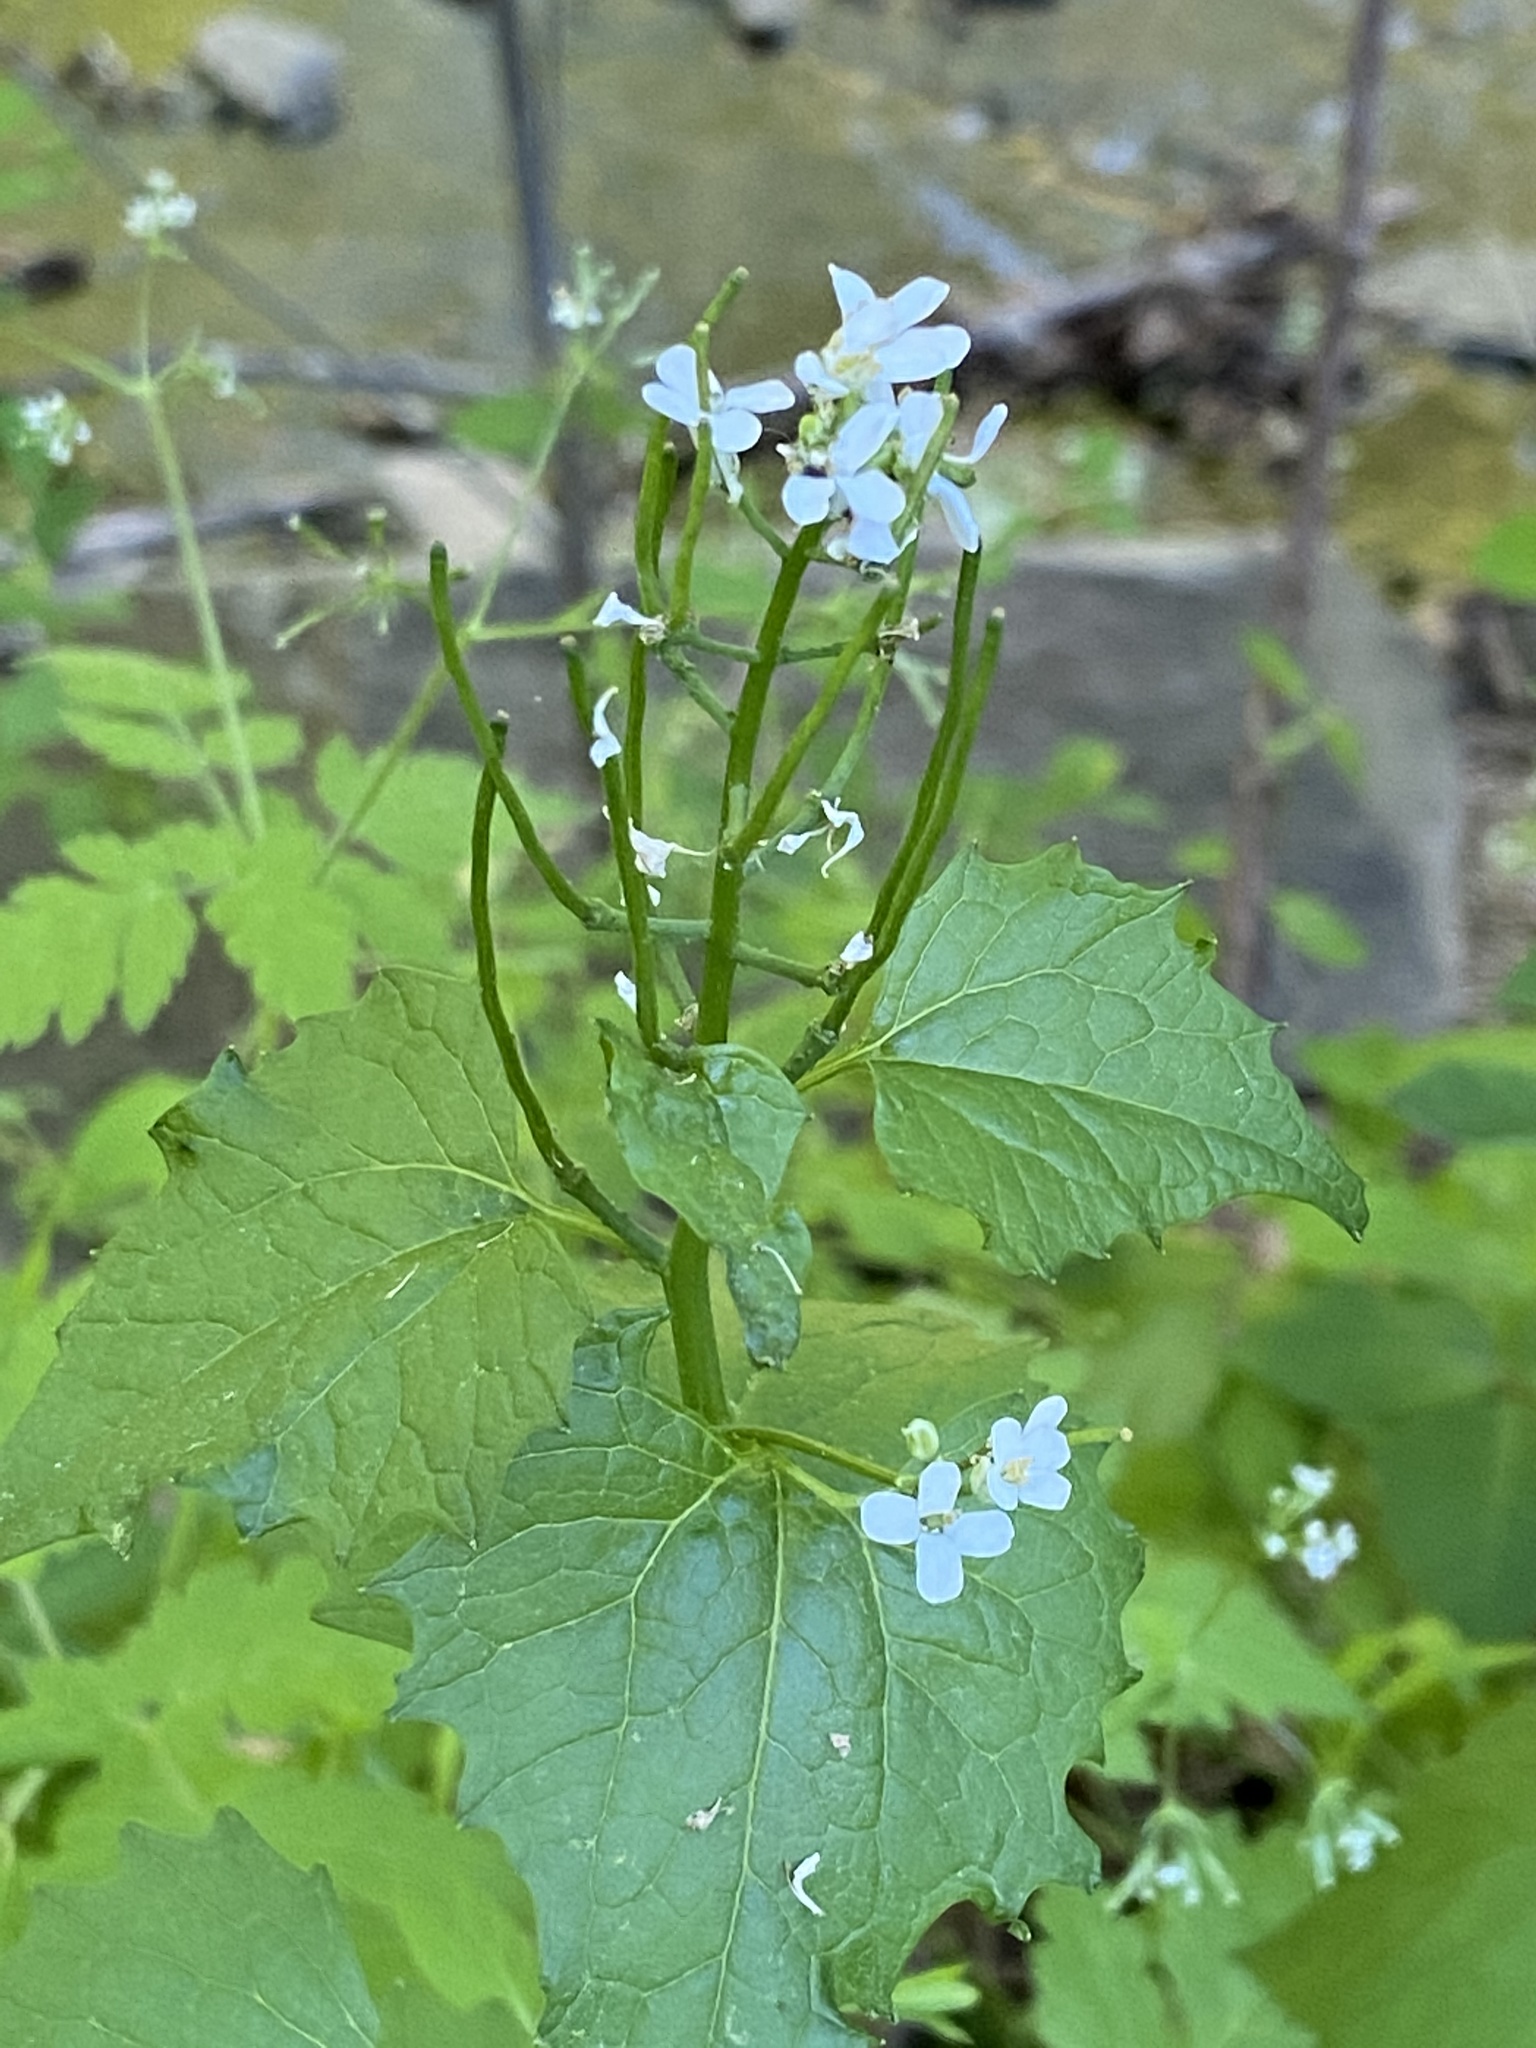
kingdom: Plantae
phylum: Tracheophyta
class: Magnoliopsida
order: Brassicales
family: Brassicaceae
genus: Alliaria
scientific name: Alliaria petiolata
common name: Garlic mustard
